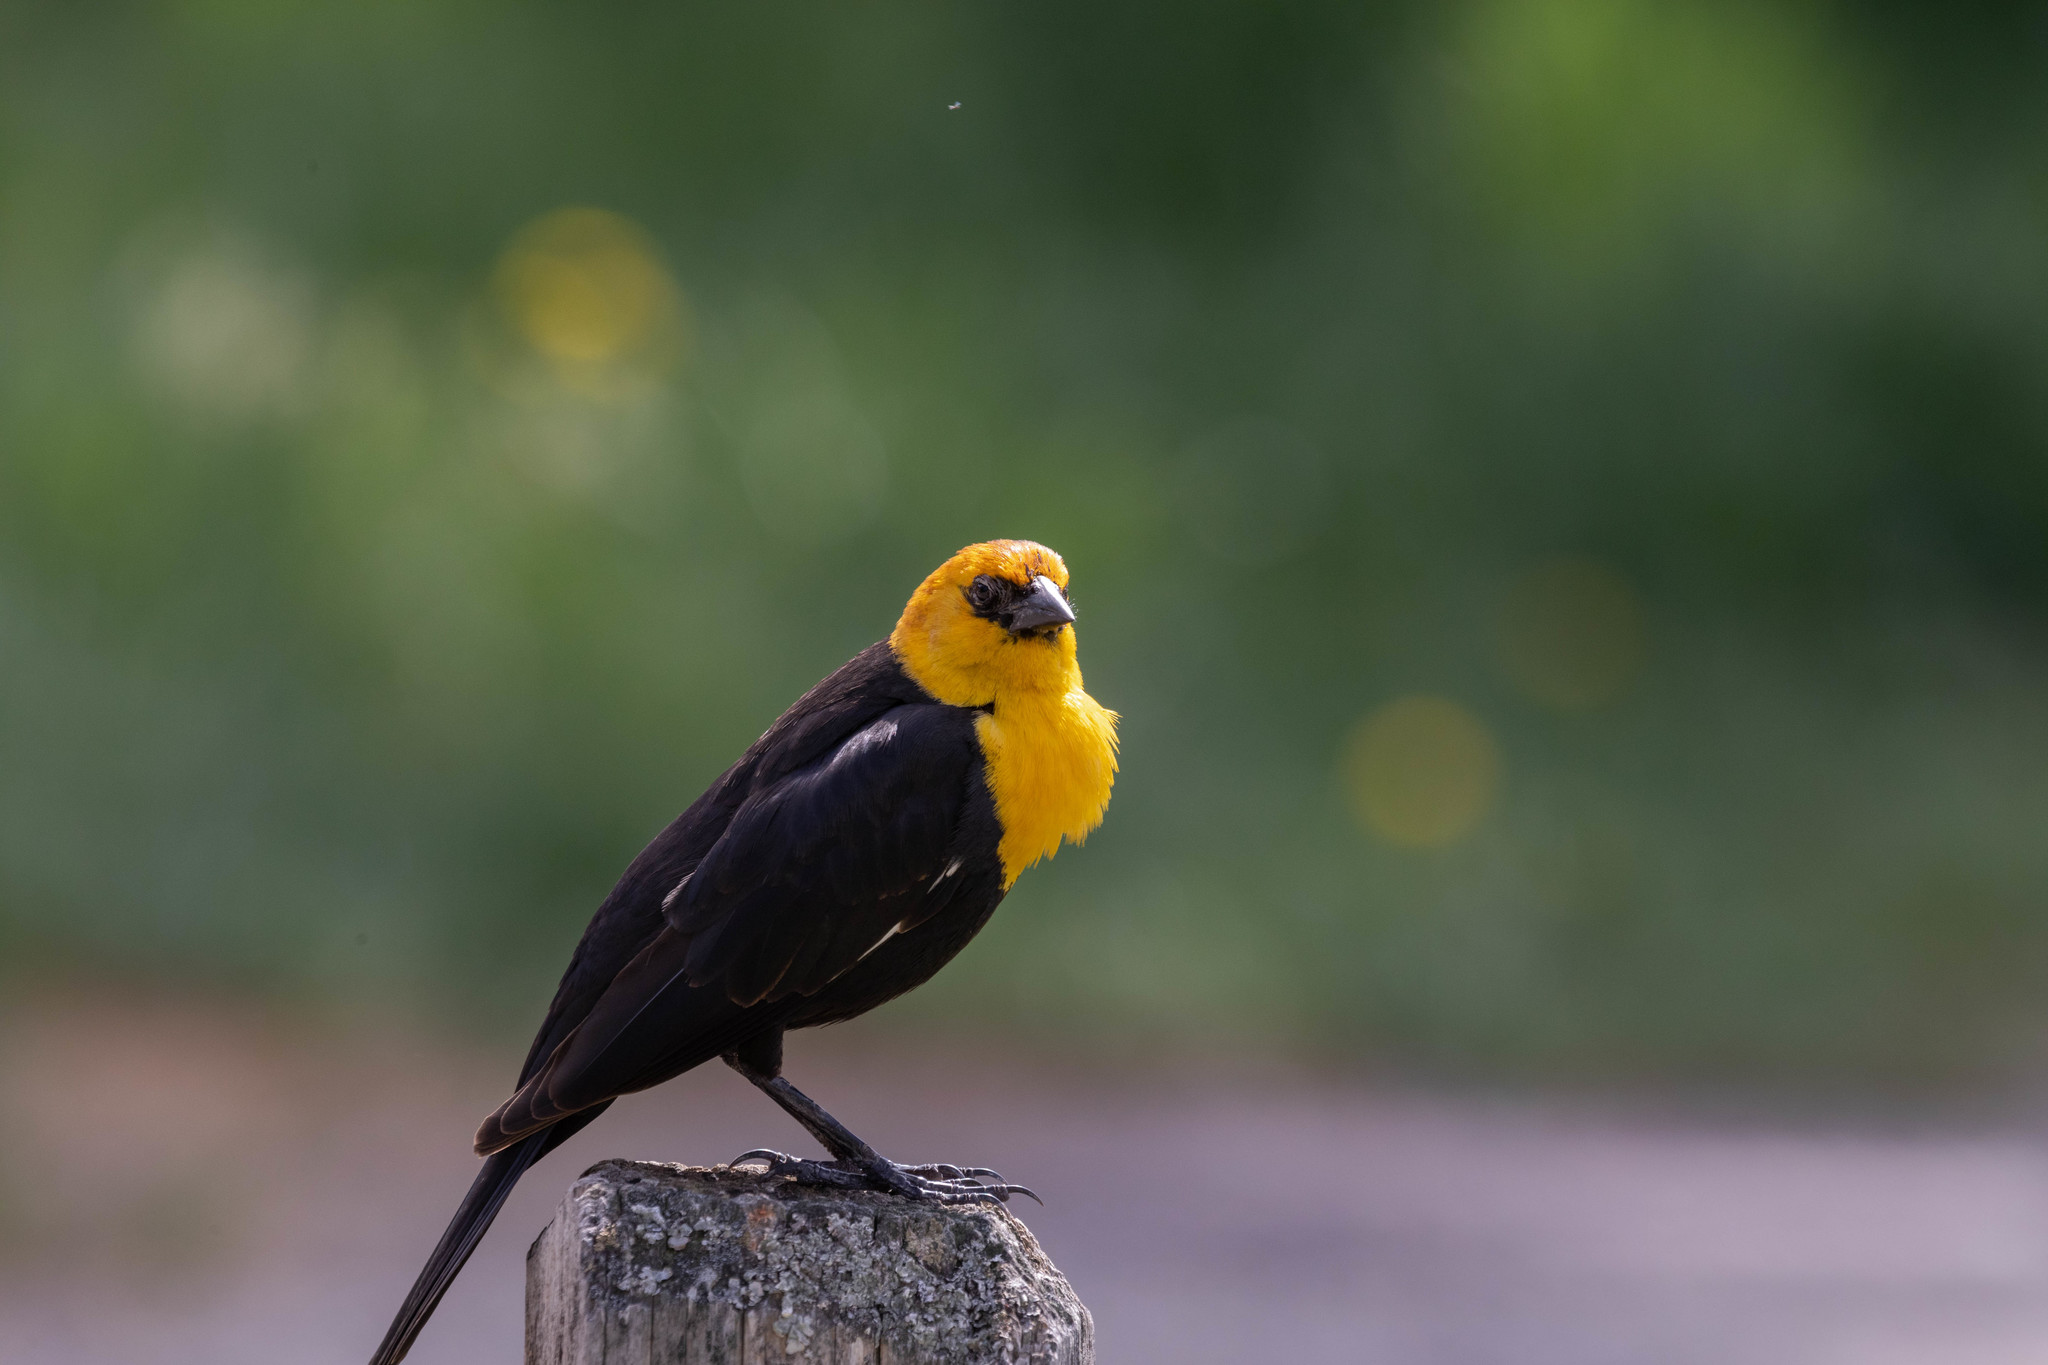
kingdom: Animalia
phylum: Chordata
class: Aves
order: Passeriformes
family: Icteridae
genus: Xanthocephalus
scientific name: Xanthocephalus xanthocephalus
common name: Yellow-headed blackbird
